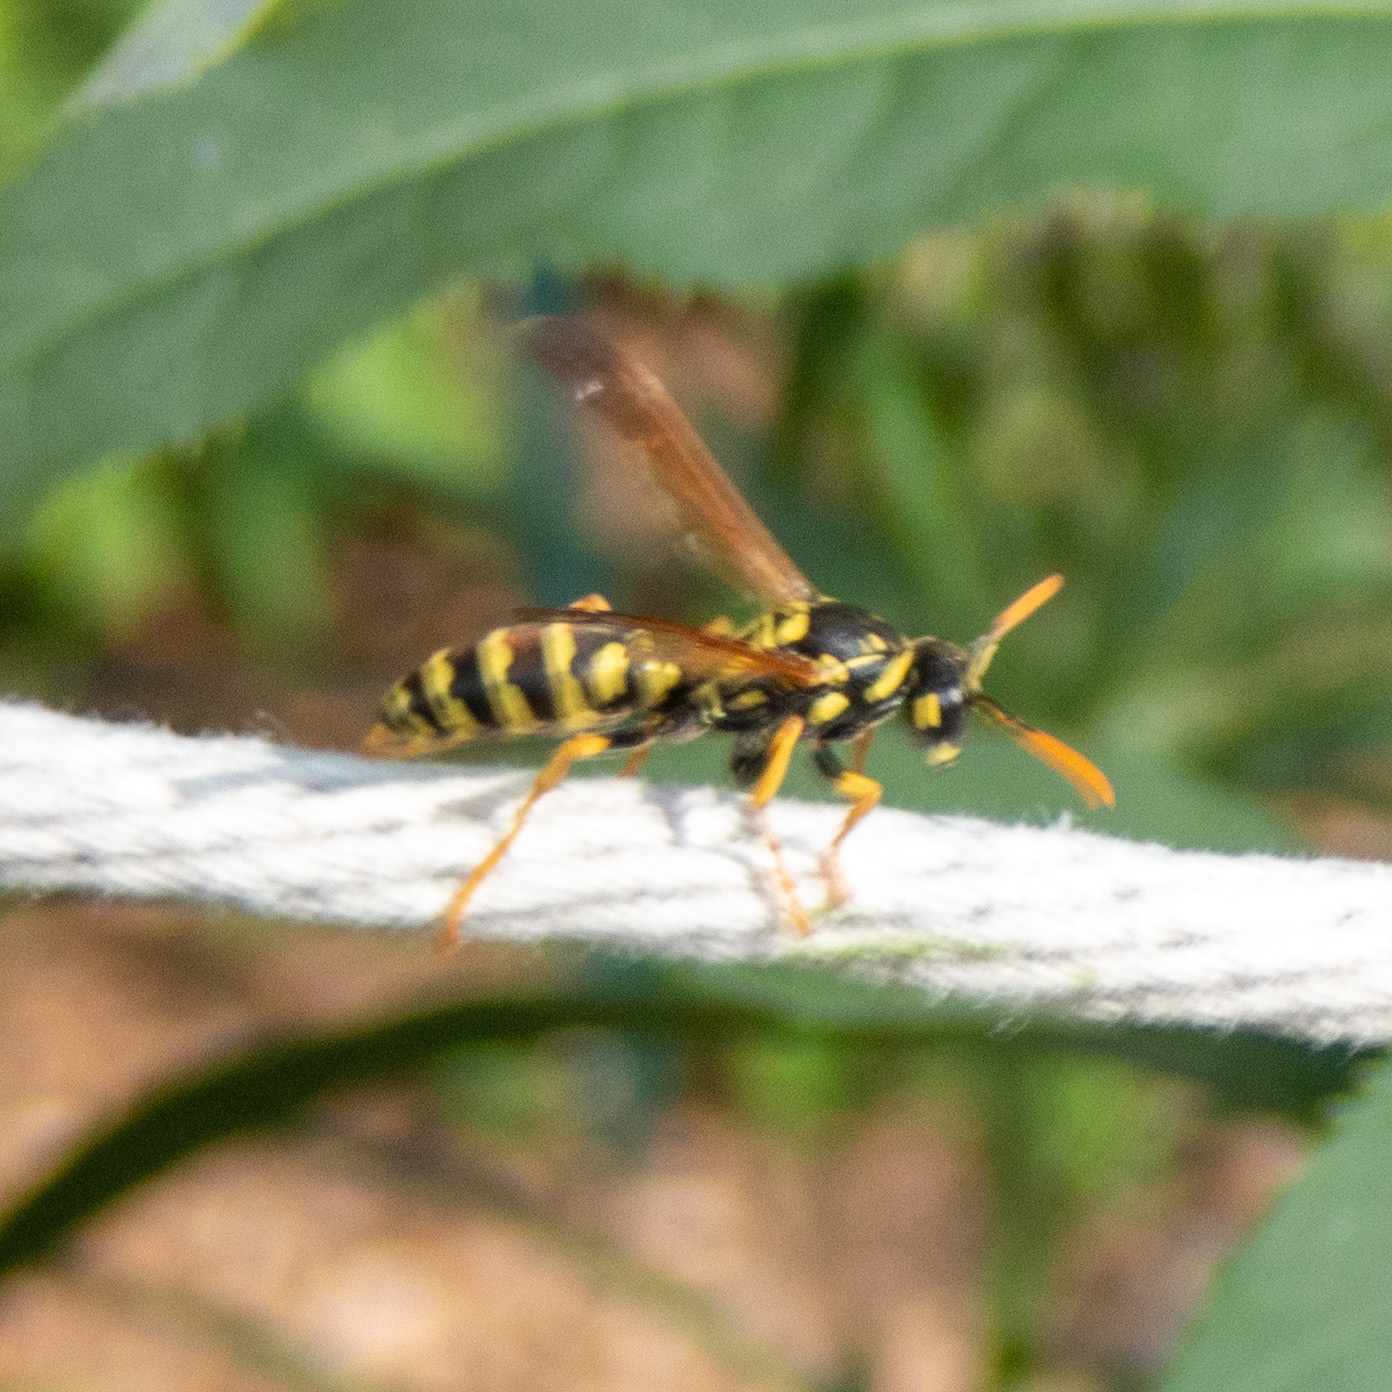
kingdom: Animalia
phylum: Arthropoda
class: Insecta
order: Hymenoptera
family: Eumenidae
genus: Polistes
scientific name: Polistes dominula
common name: Paper wasp
